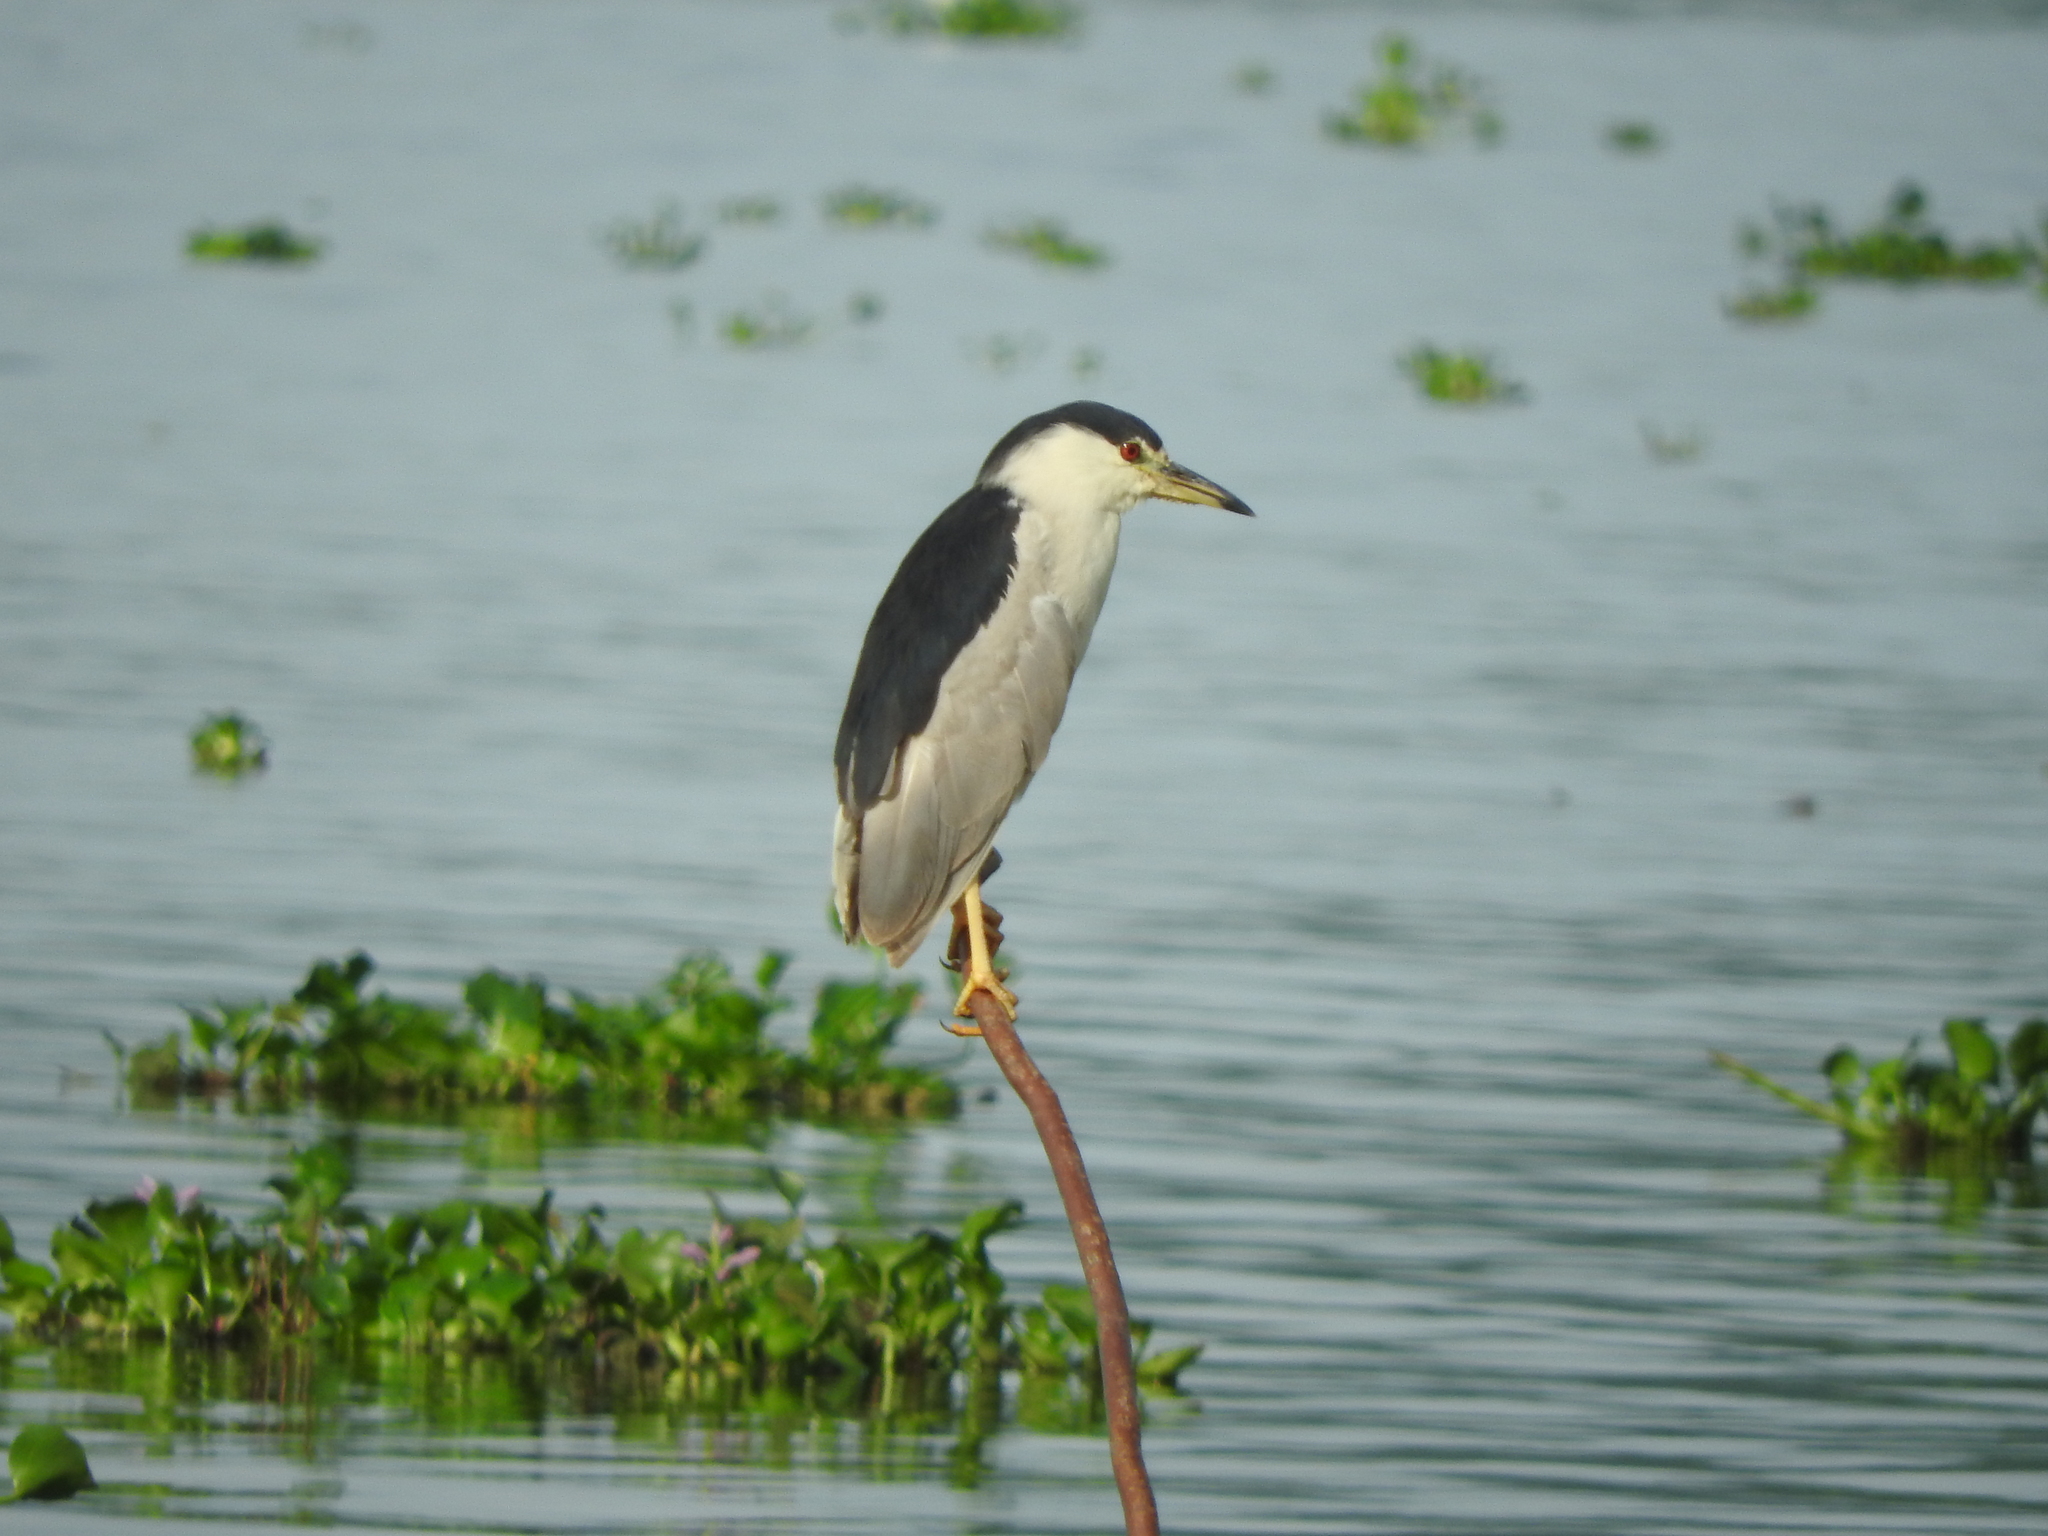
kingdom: Animalia
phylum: Chordata
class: Aves
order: Pelecaniformes
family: Ardeidae
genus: Nycticorax
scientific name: Nycticorax nycticorax
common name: Black-crowned night heron
